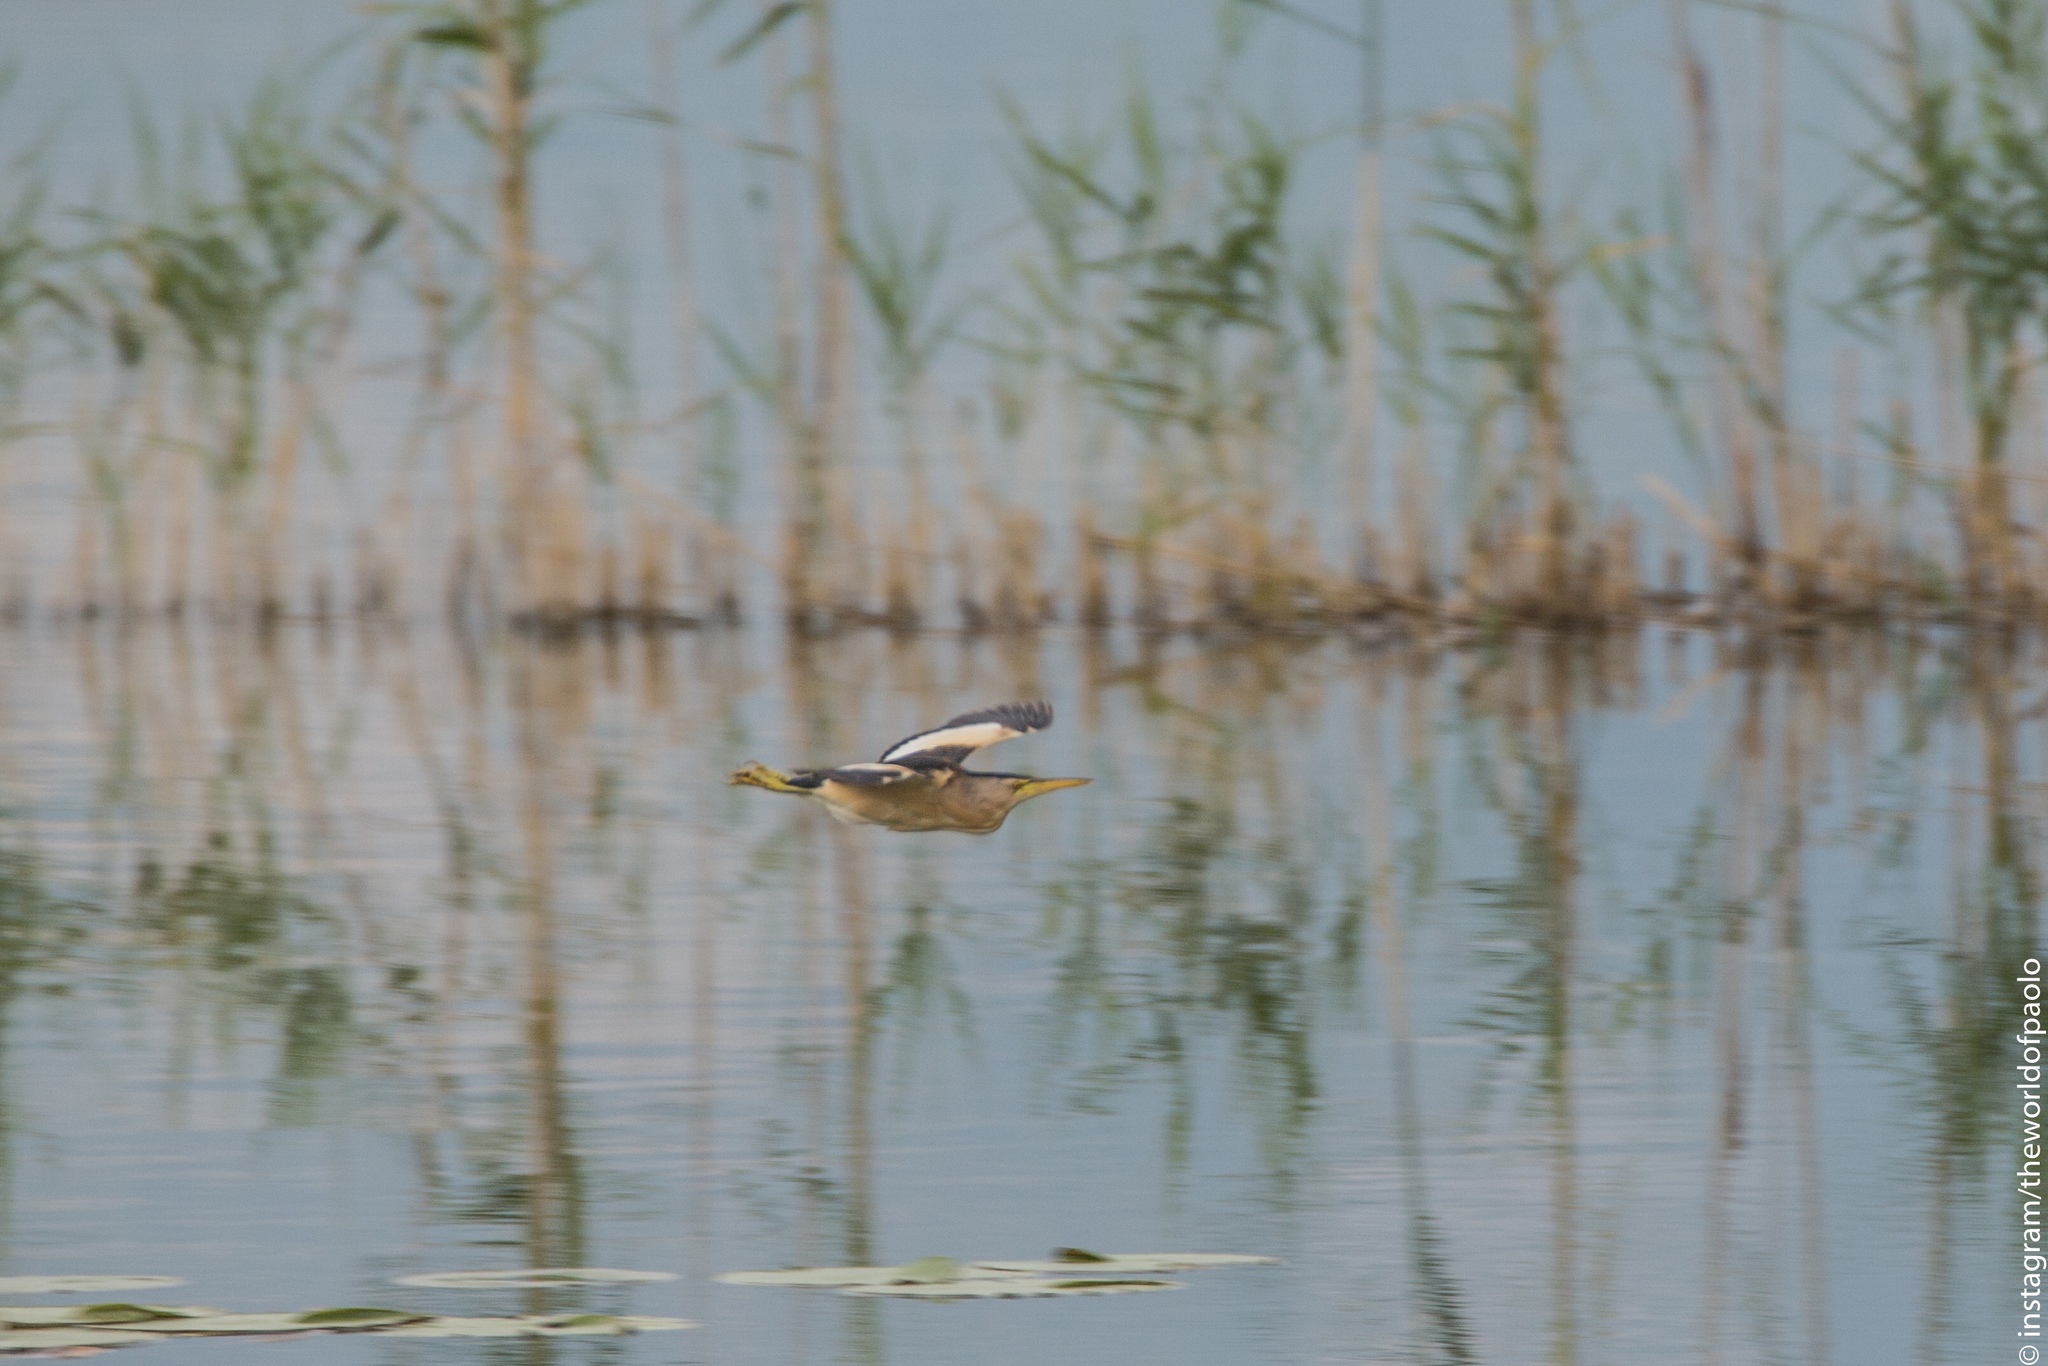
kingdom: Animalia
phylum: Chordata
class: Aves
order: Pelecaniformes
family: Ardeidae
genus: Ixobrychus
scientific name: Ixobrychus minutus
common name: Little bittern
